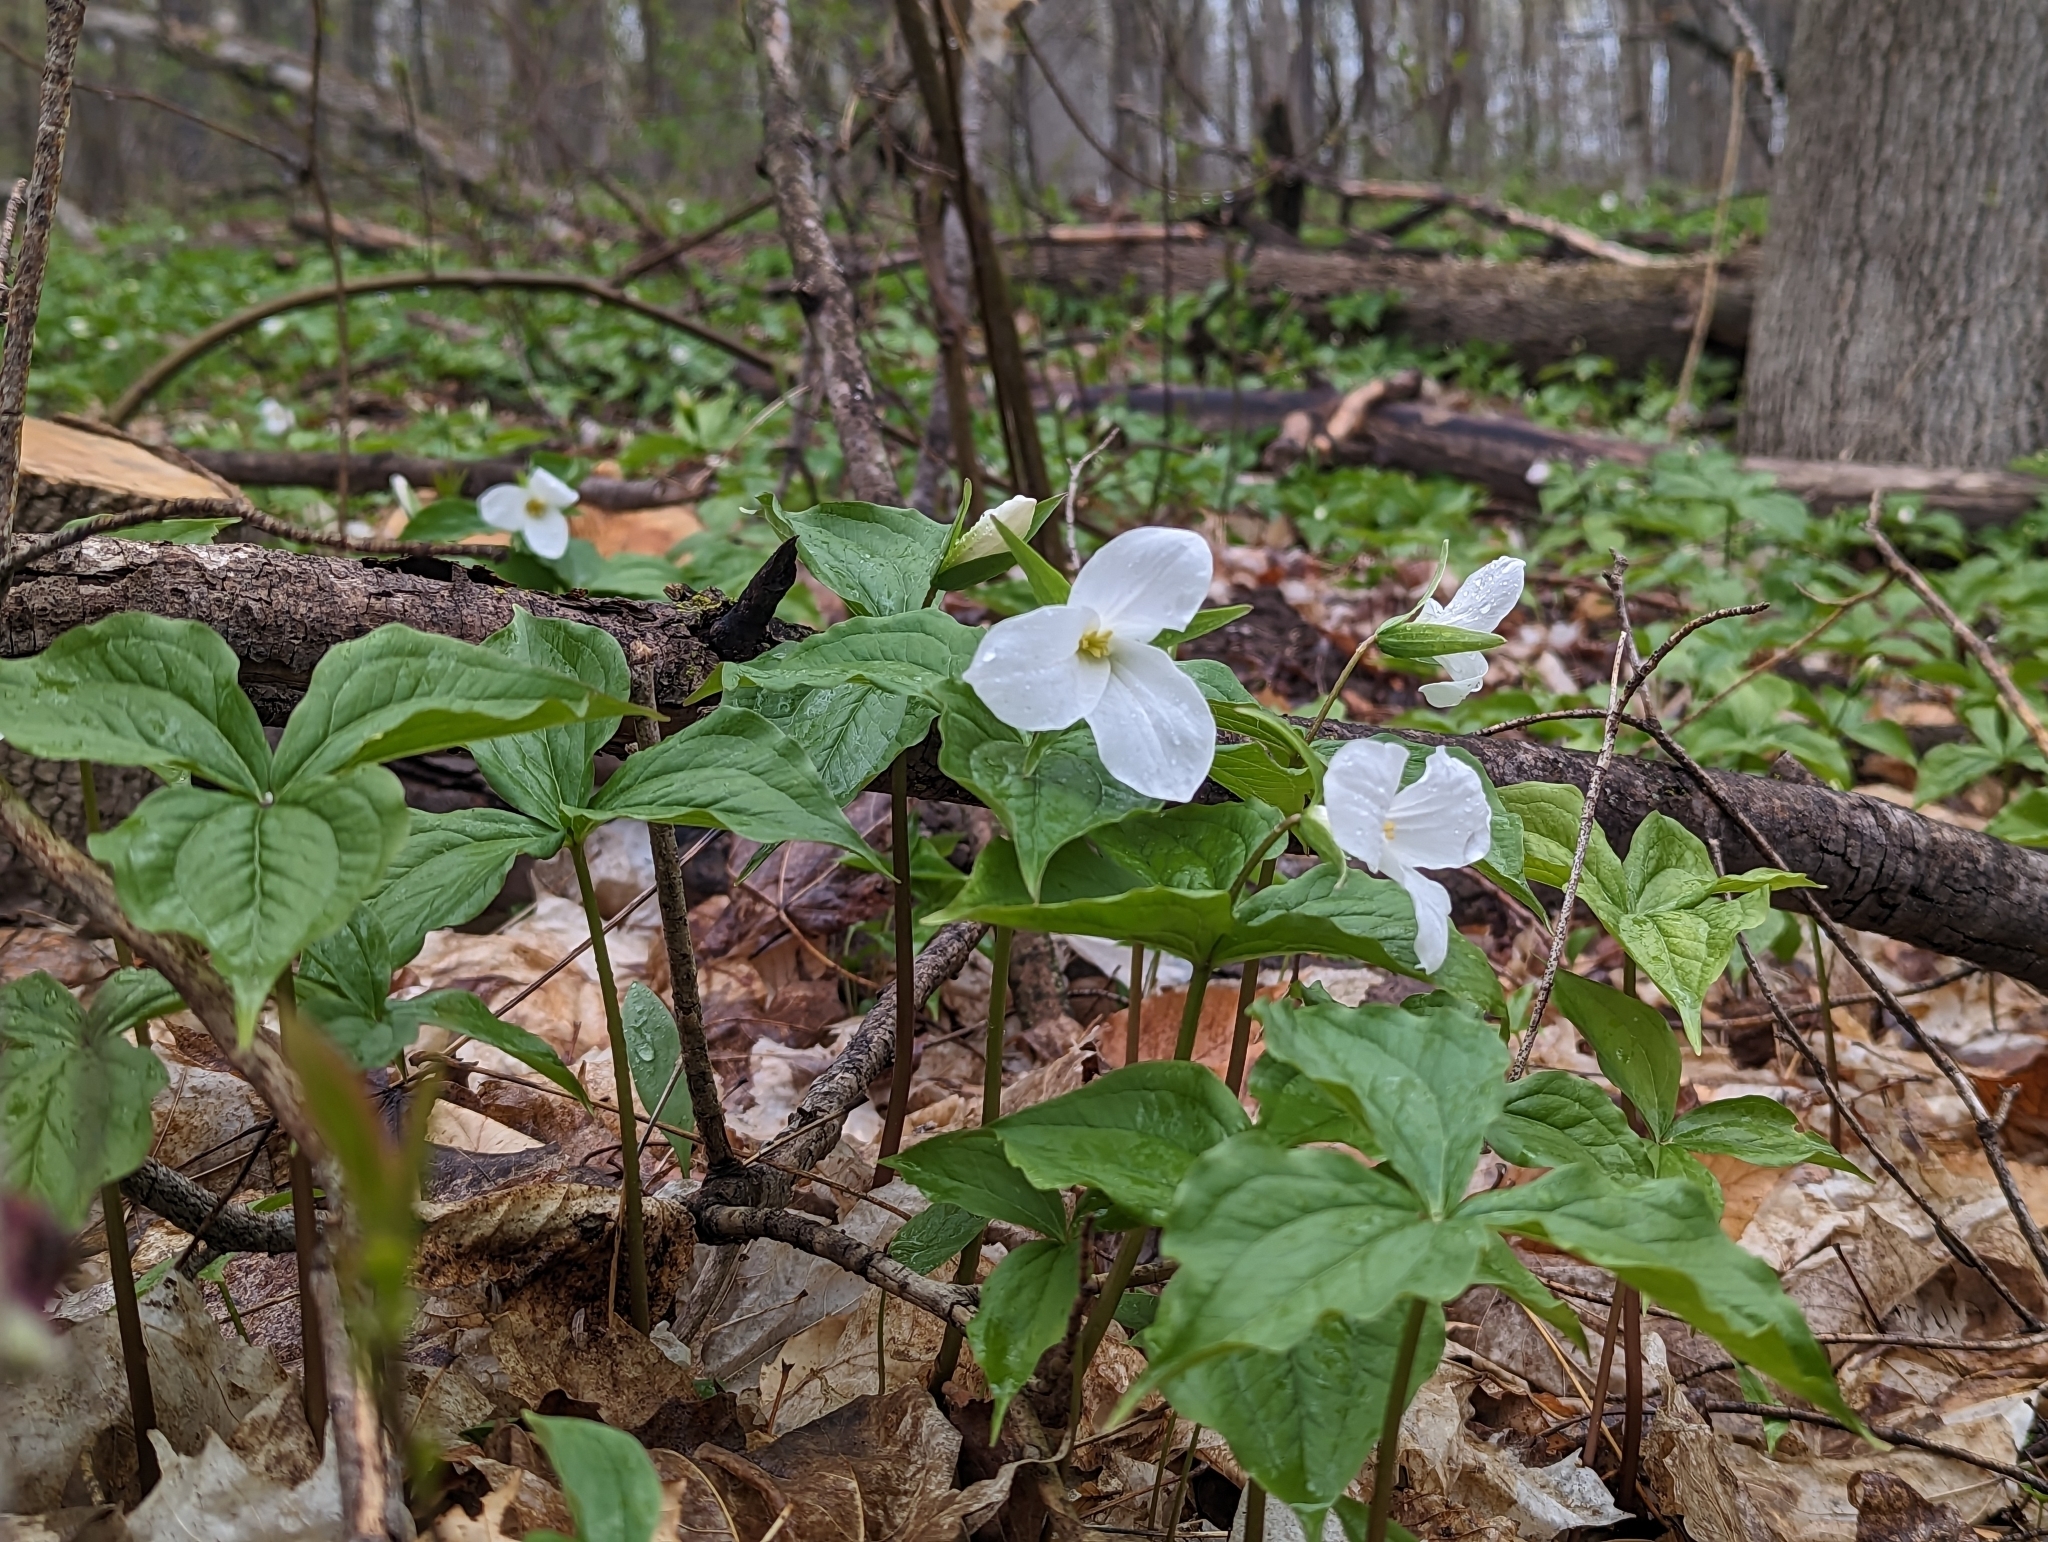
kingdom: Plantae
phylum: Tracheophyta
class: Liliopsida
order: Liliales
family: Melanthiaceae
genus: Trillium
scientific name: Trillium grandiflorum
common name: Great white trillium
